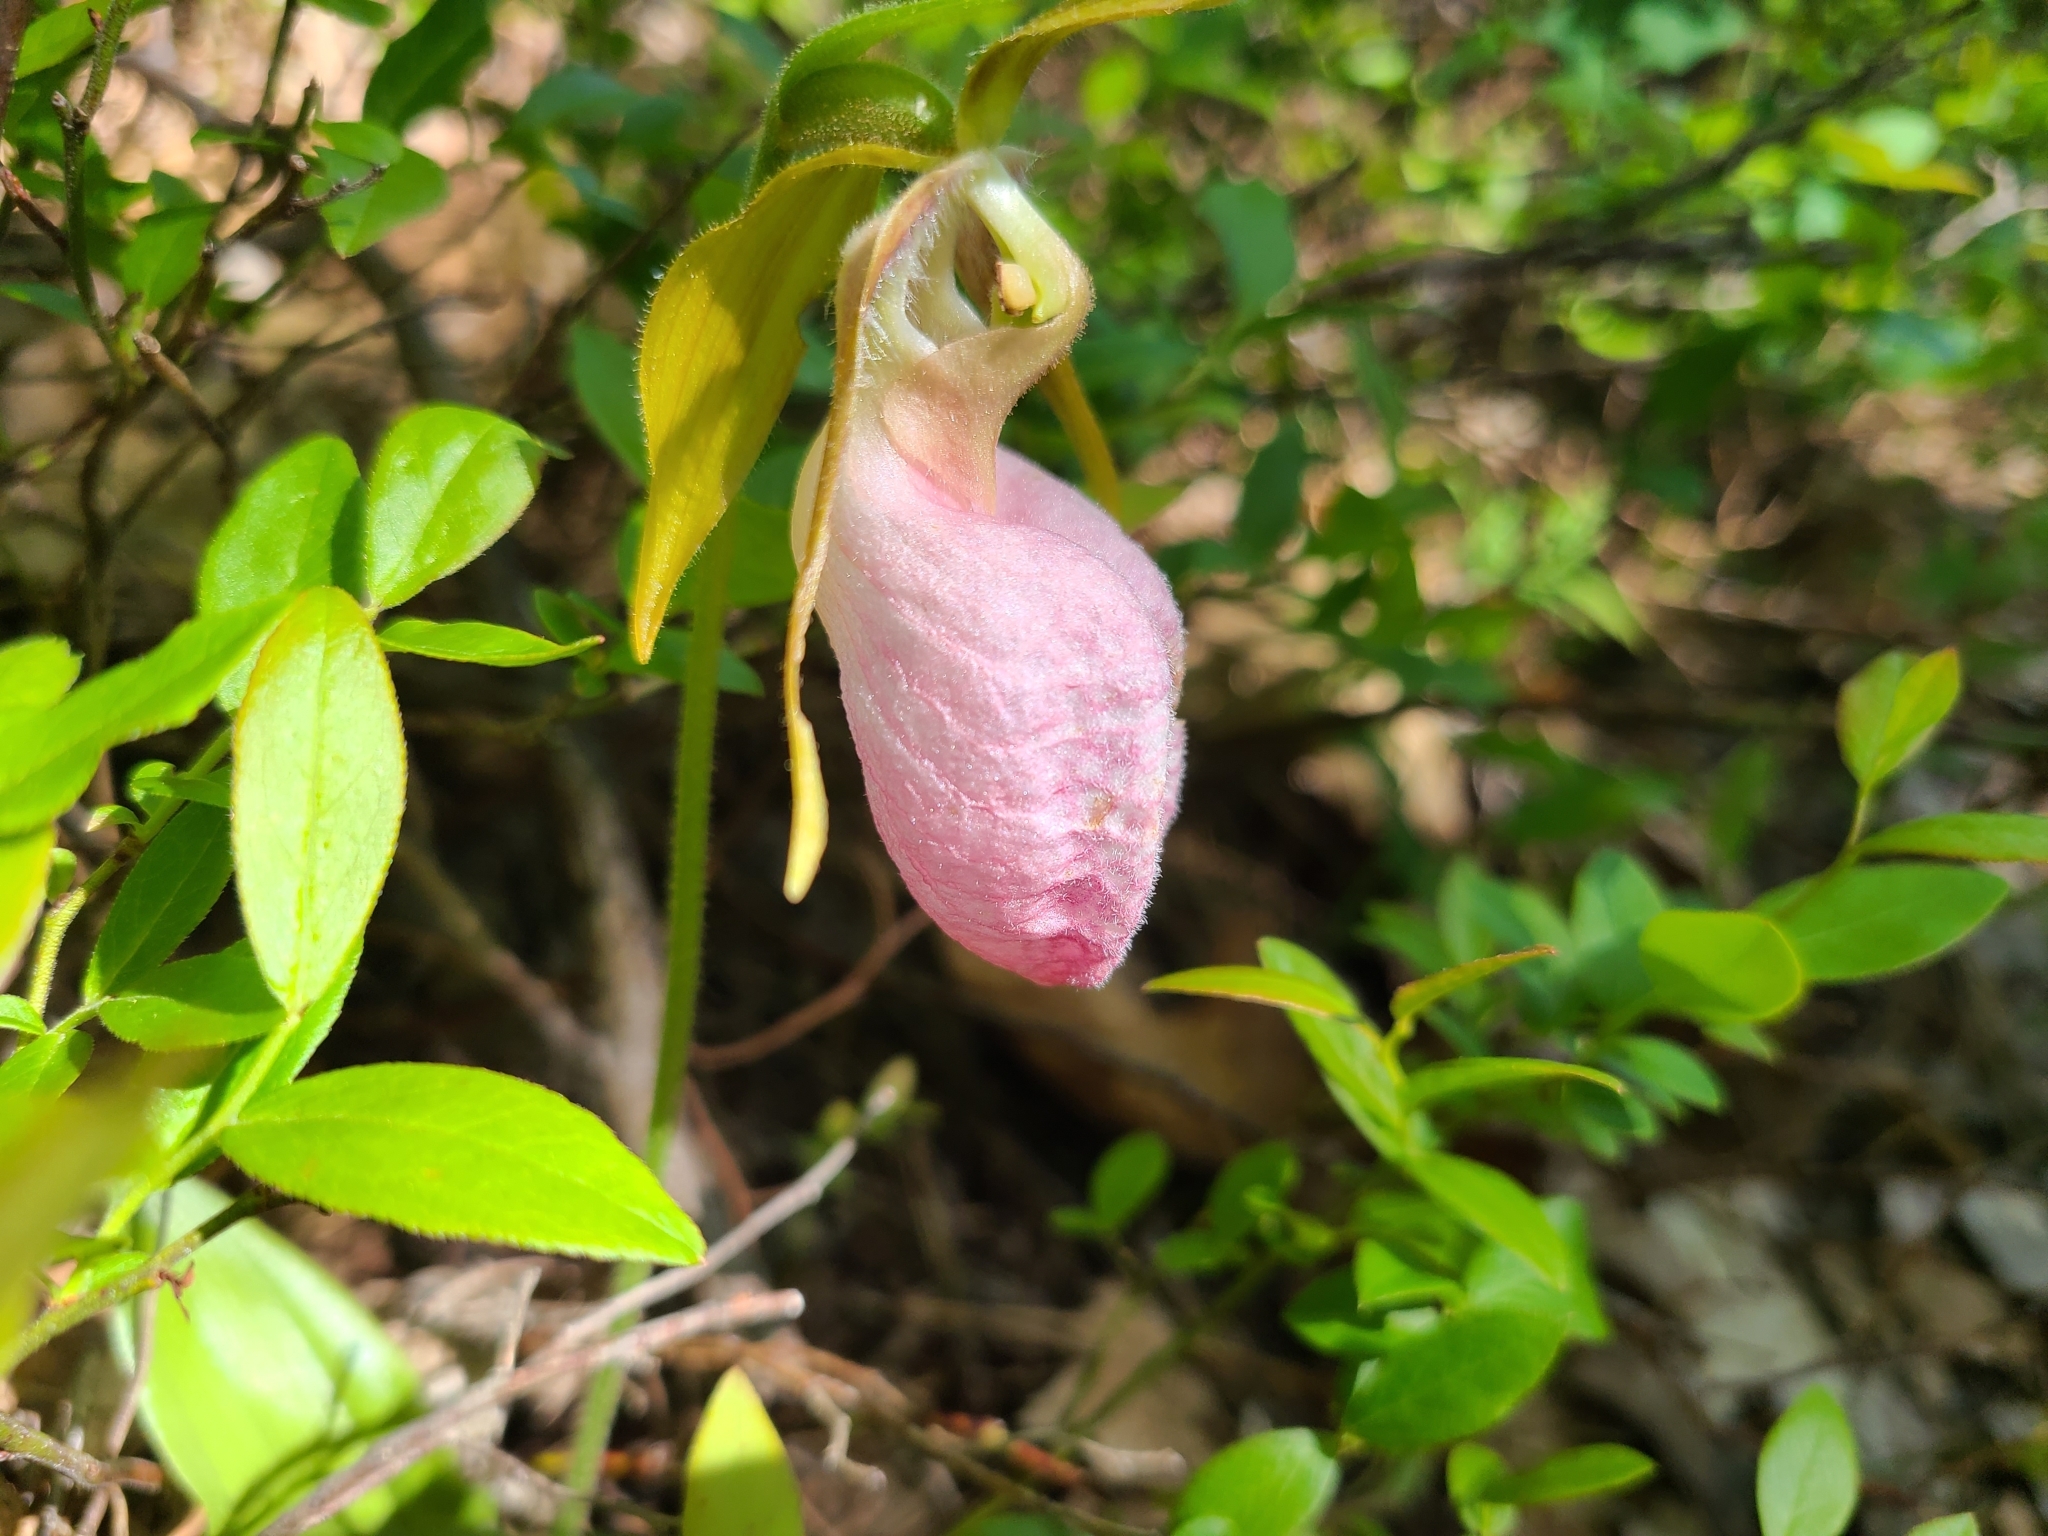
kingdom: Plantae
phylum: Tracheophyta
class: Liliopsida
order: Asparagales
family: Orchidaceae
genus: Cypripedium
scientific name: Cypripedium acaule
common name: Pink lady's-slipper
